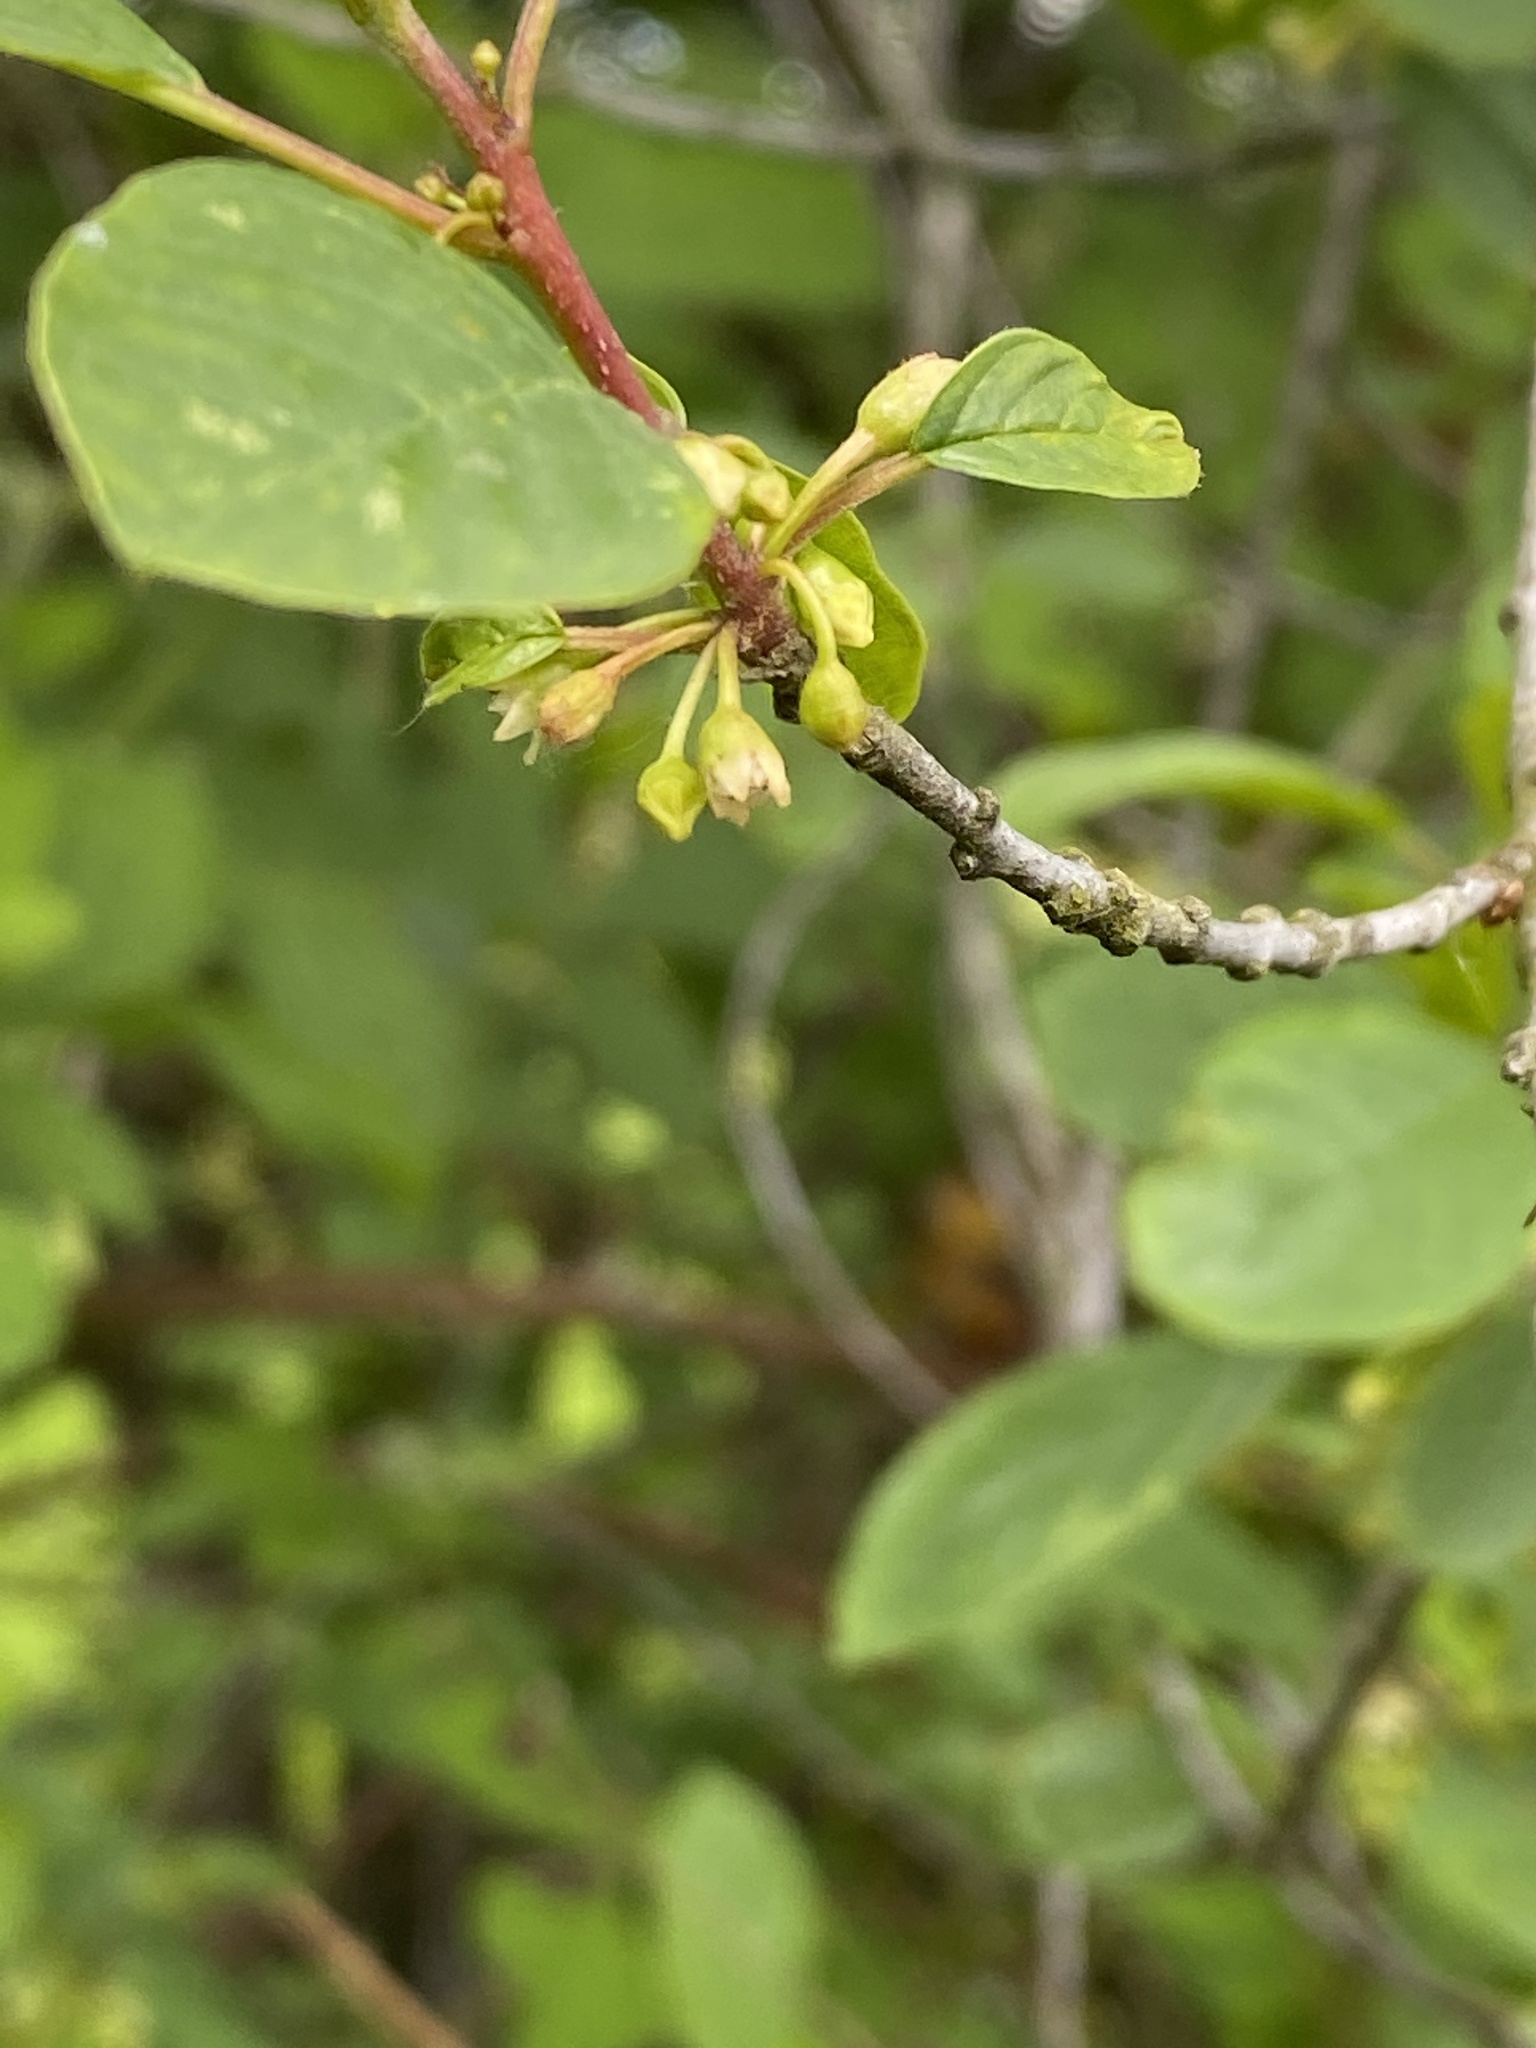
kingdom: Plantae
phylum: Tracheophyta
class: Magnoliopsida
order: Rosales
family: Rhamnaceae
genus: Frangula
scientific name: Frangula alnus
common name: Alder buckthorn
